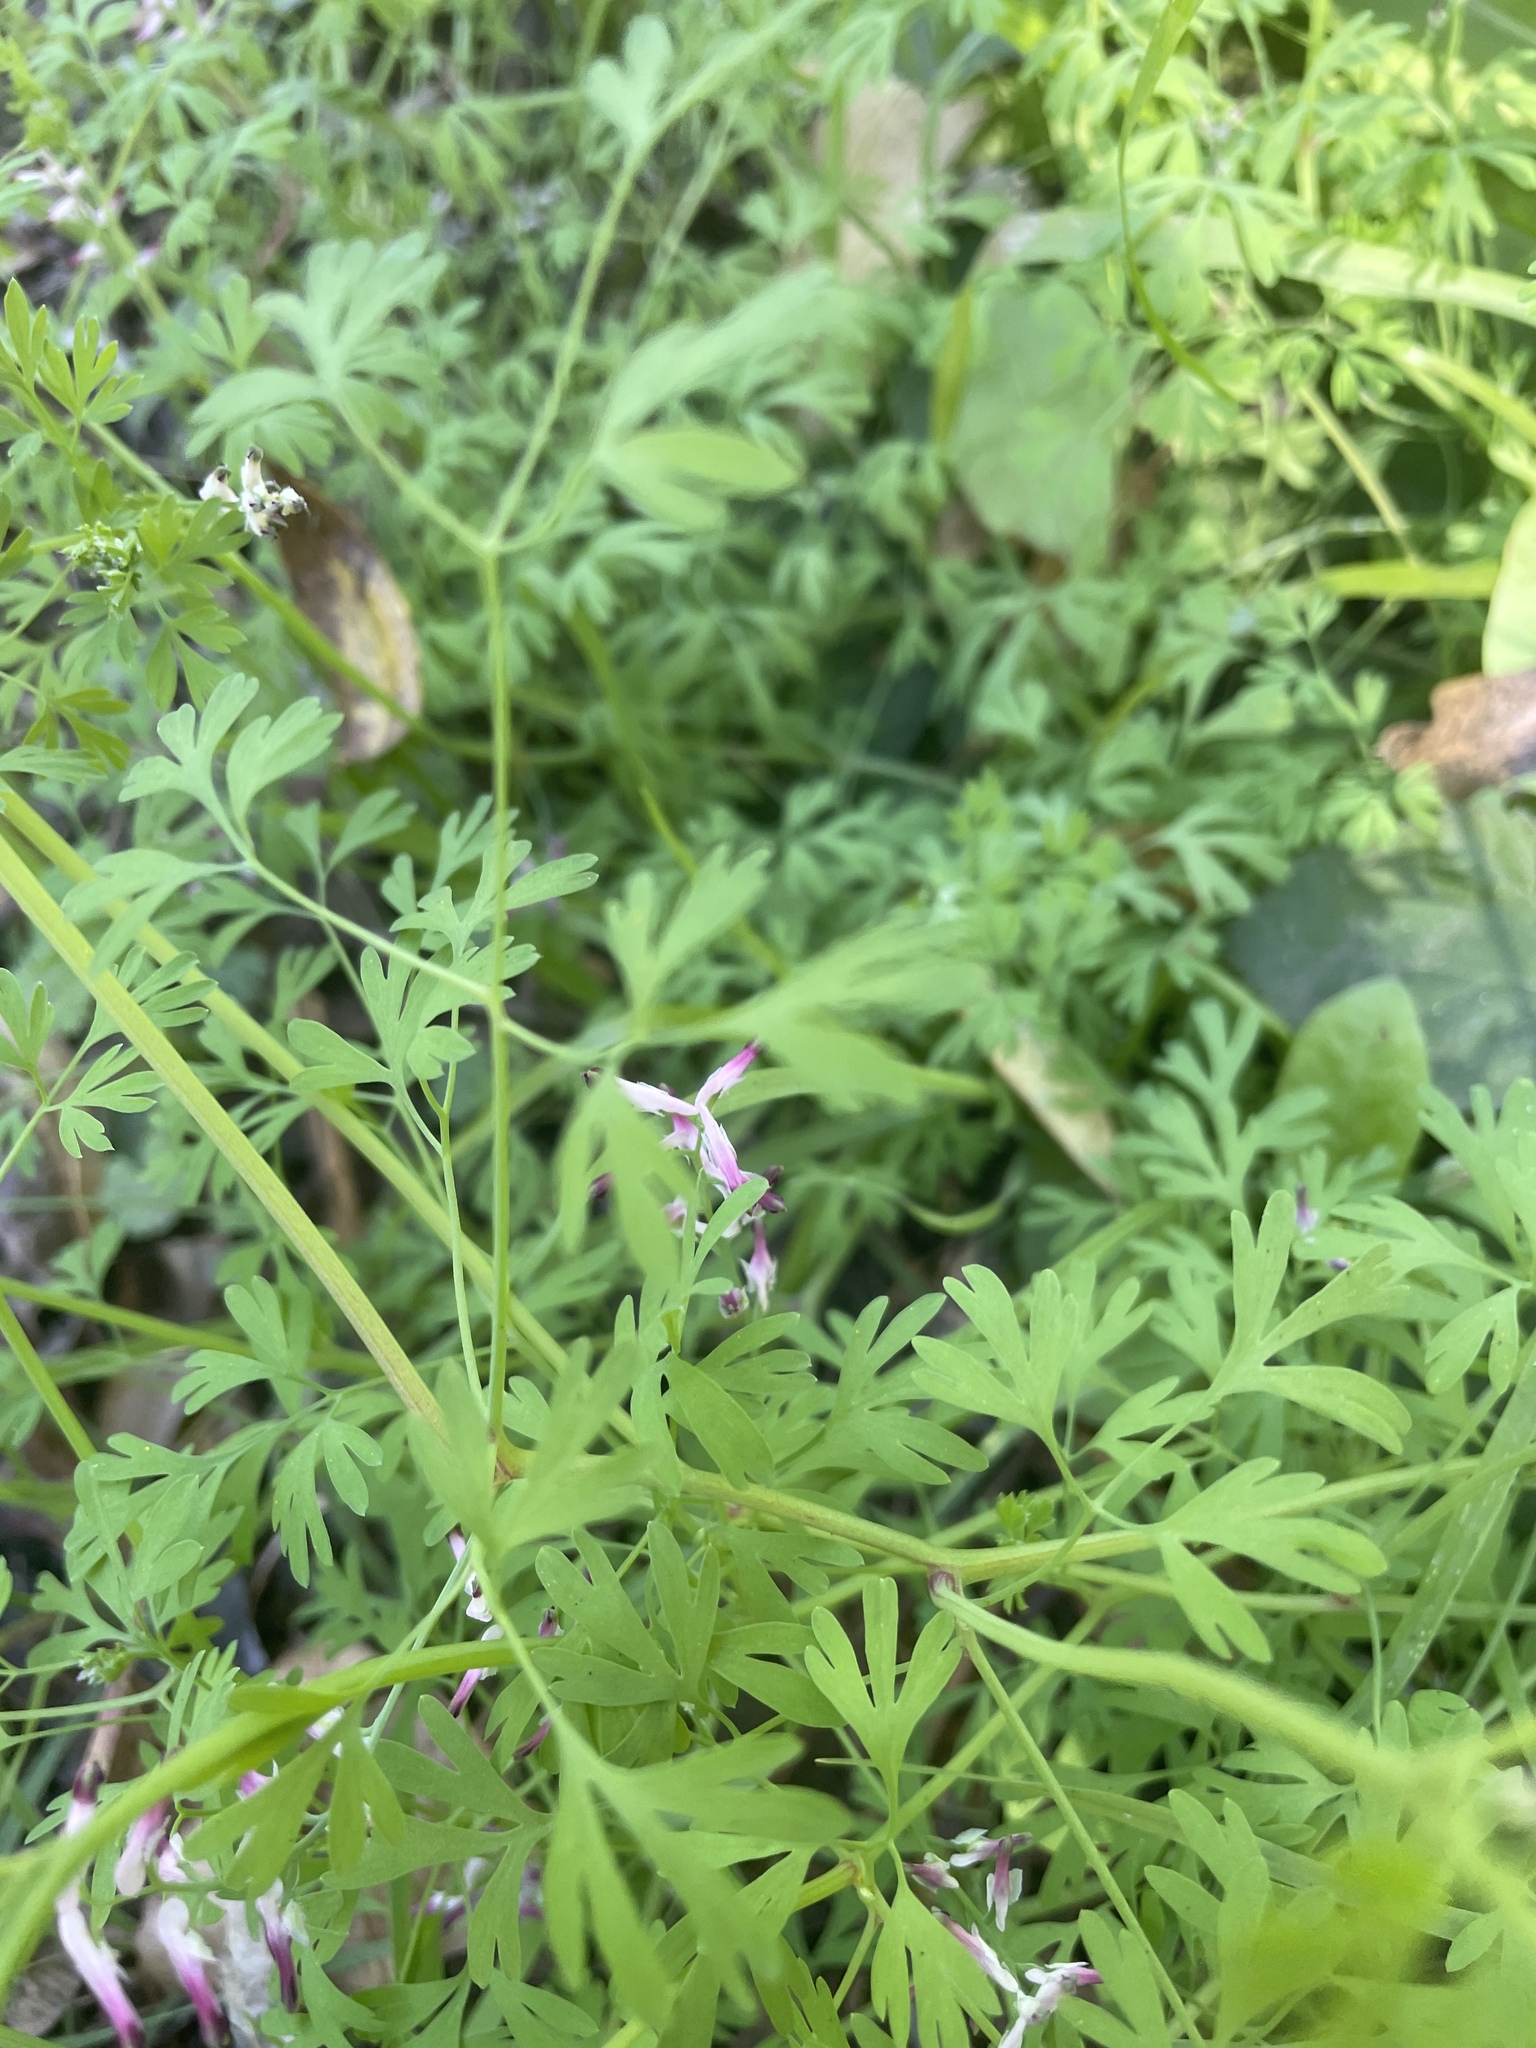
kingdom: Plantae
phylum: Tracheophyta
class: Magnoliopsida
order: Ranunculales
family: Papaveraceae
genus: Fumaria
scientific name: Fumaria muralis
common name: Common ramping-fumitory
